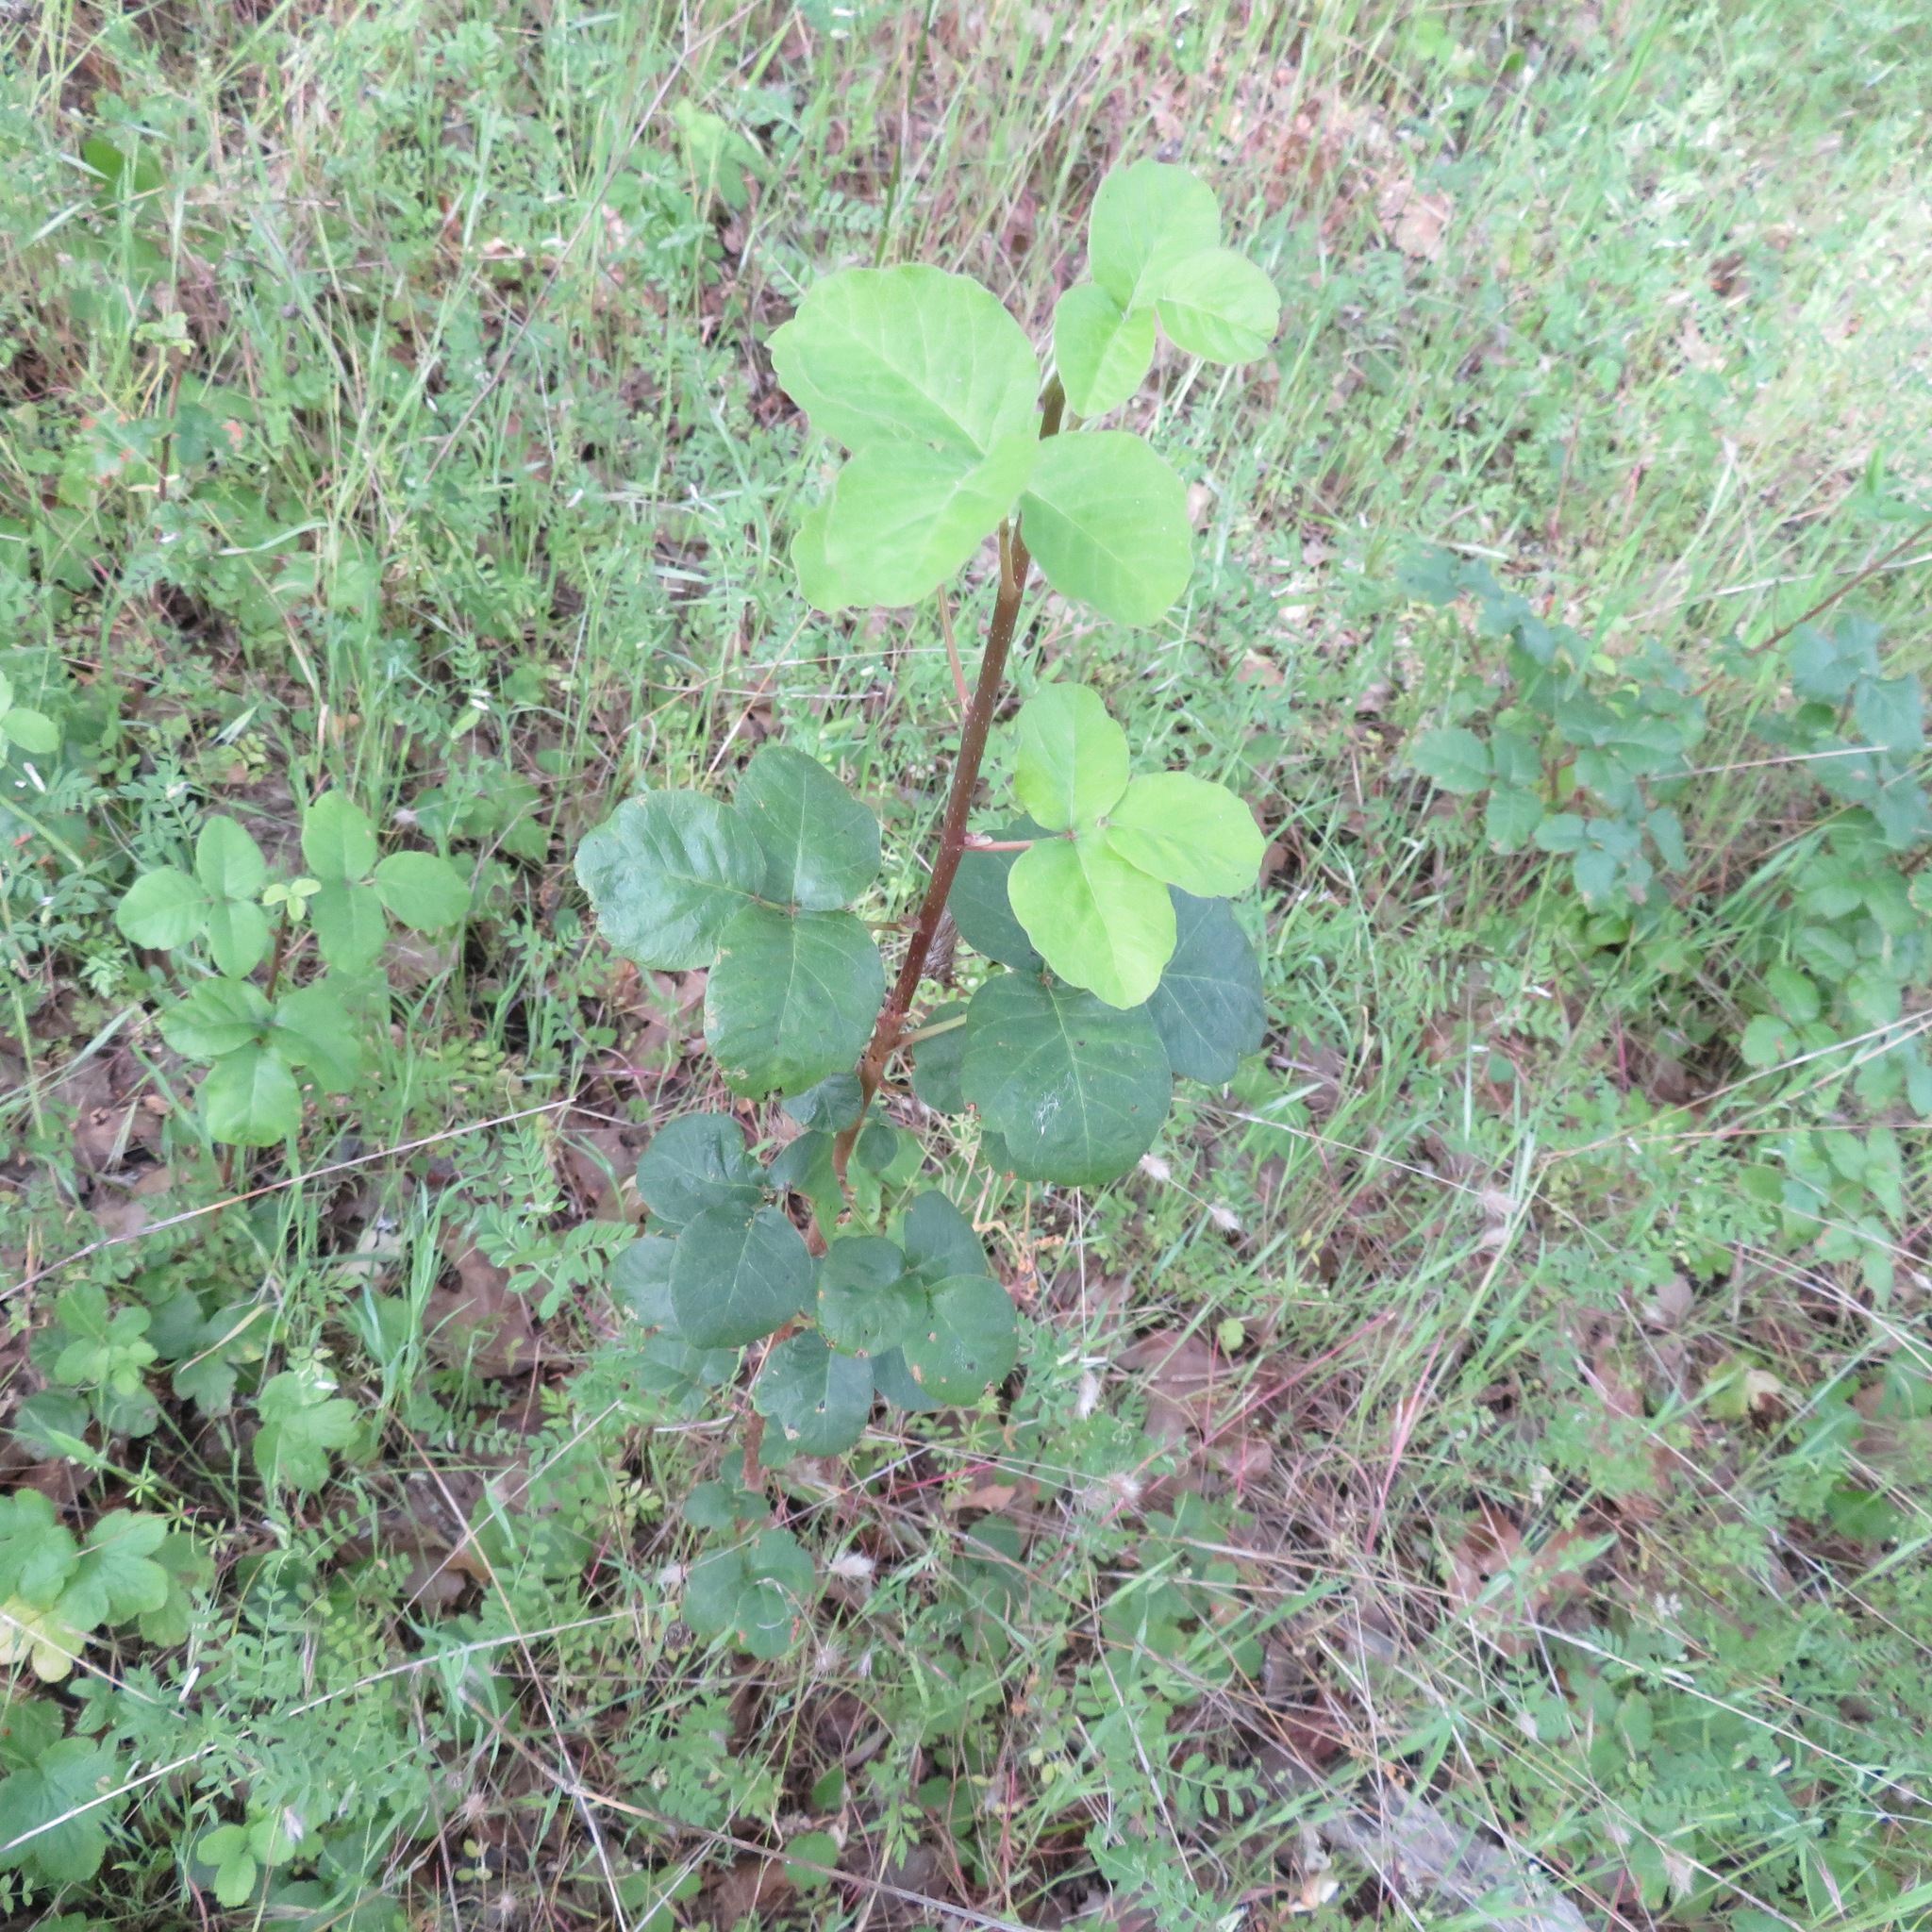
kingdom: Plantae
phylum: Tracheophyta
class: Magnoliopsida
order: Sapindales
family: Anacardiaceae
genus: Toxicodendron
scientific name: Toxicodendron diversilobum
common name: Pacific poison-oak
